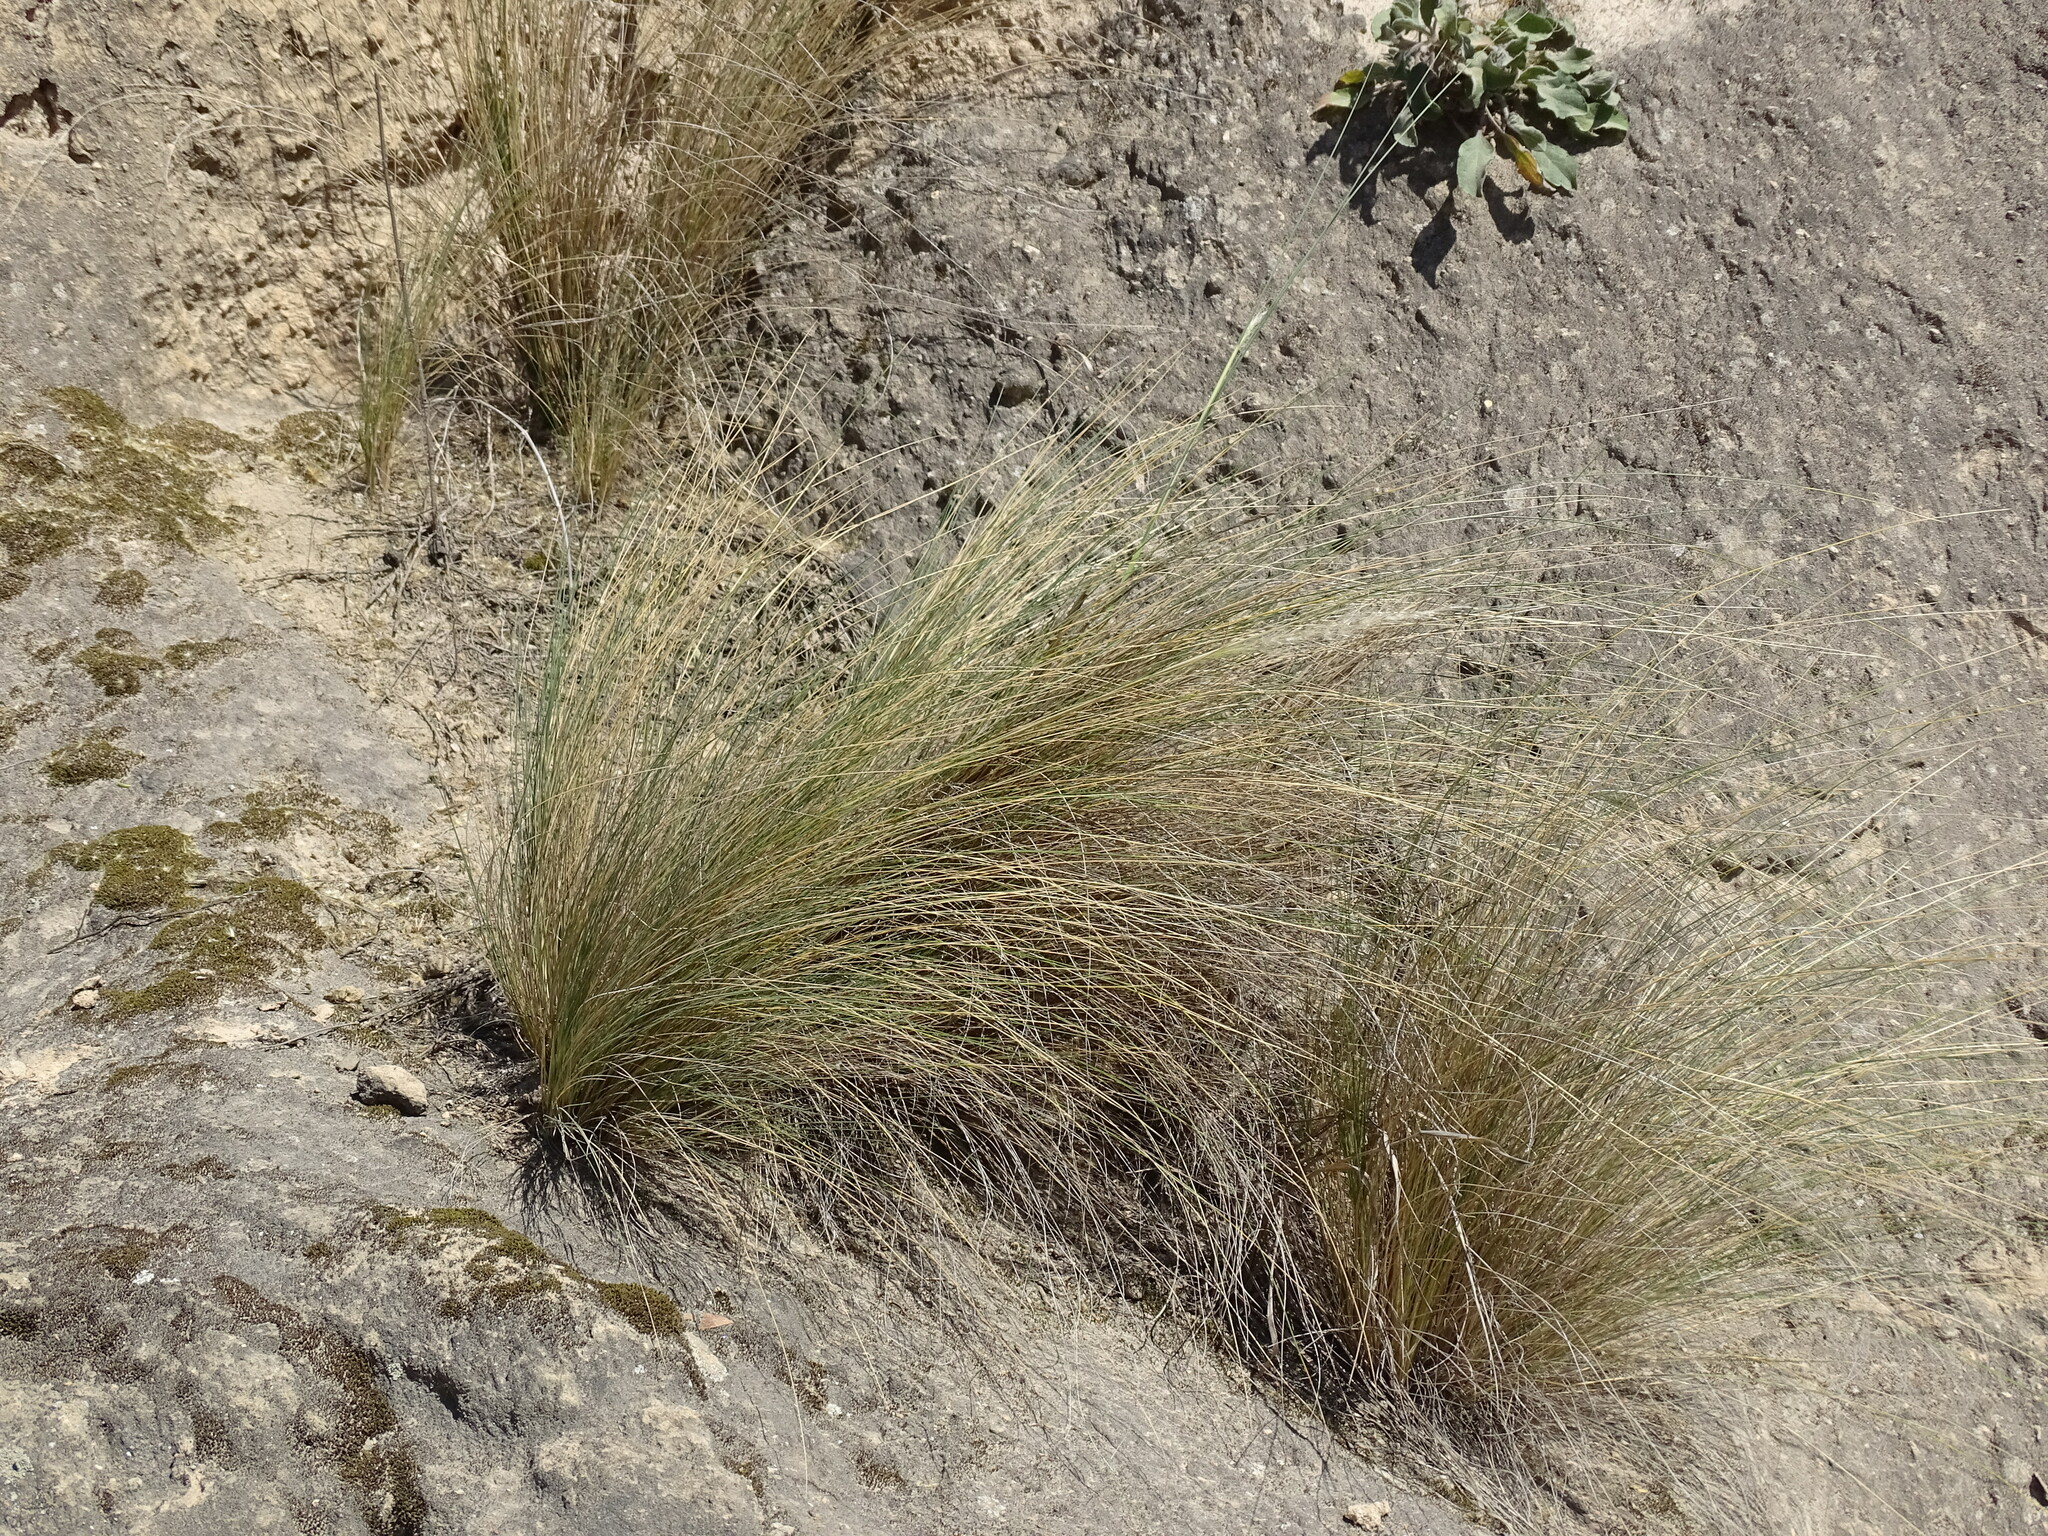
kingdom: Plantae
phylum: Tracheophyta
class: Liliopsida
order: Poales
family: Poaceae
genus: Jarava
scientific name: Jarava ichu
